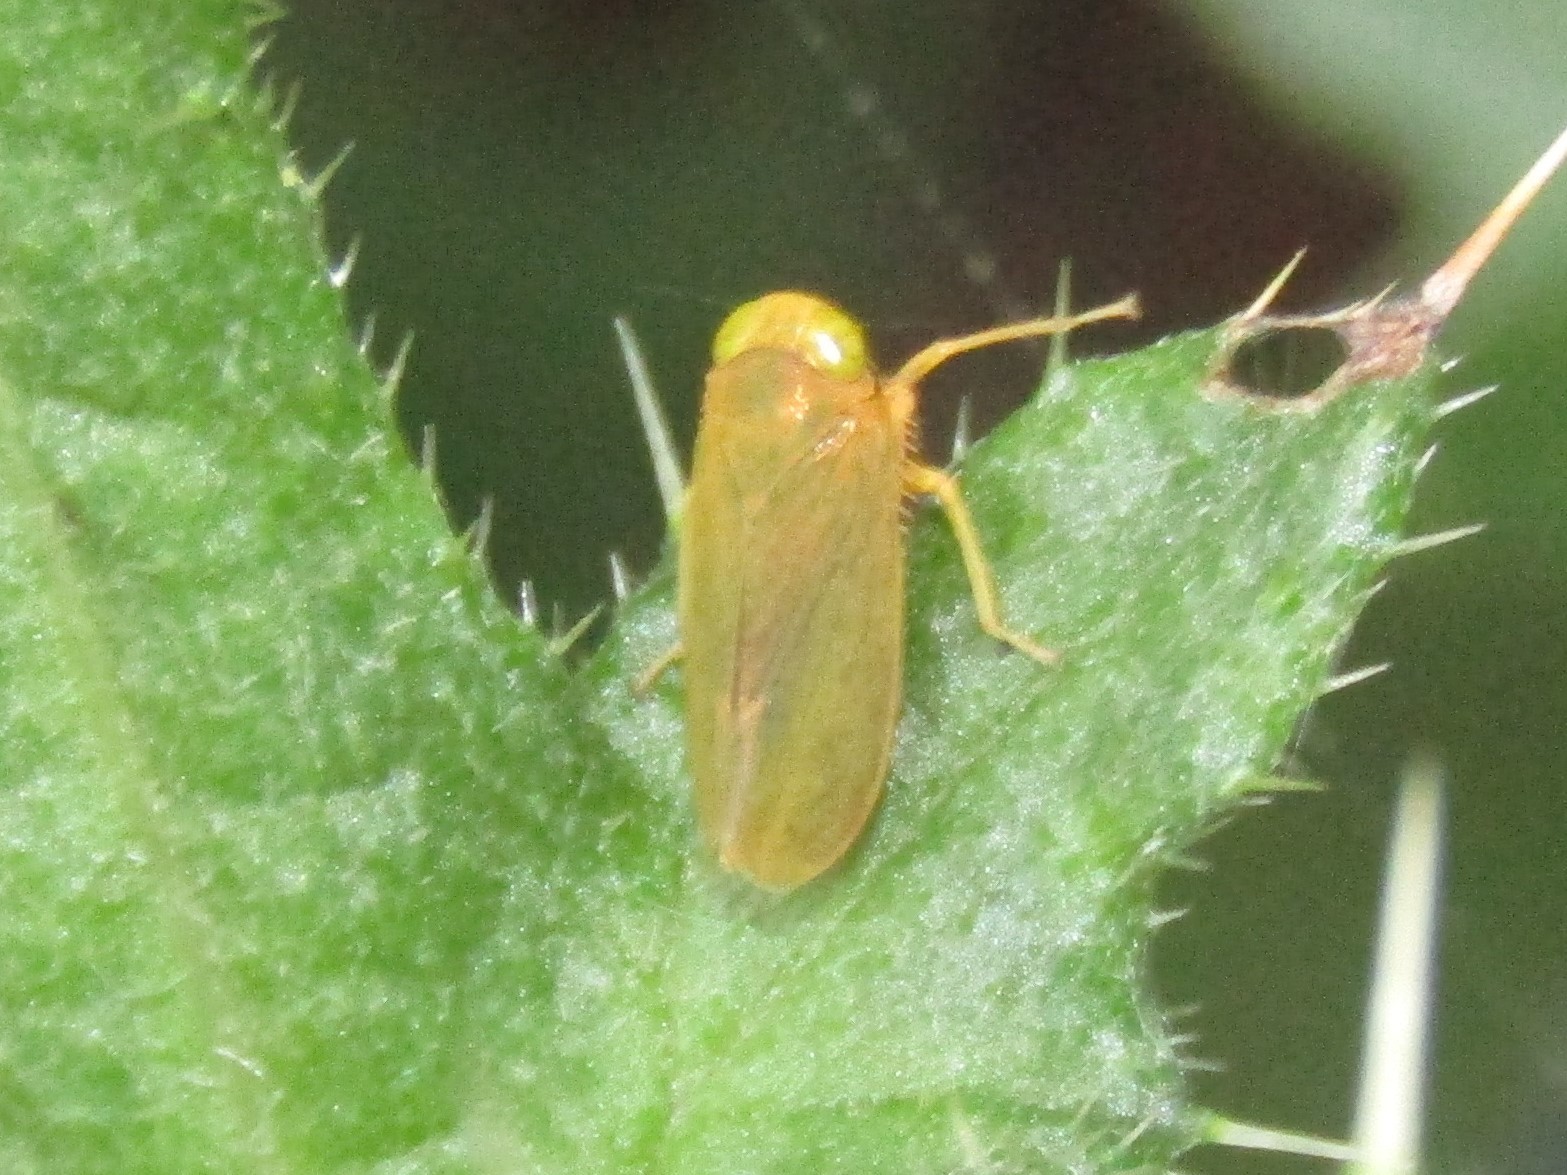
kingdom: Animalia
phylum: Arthropoda
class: Insecta
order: Hemiptera
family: Cicadellidae
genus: Jikradia
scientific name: Jikradia olitoria
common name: Coppery leafhopper
